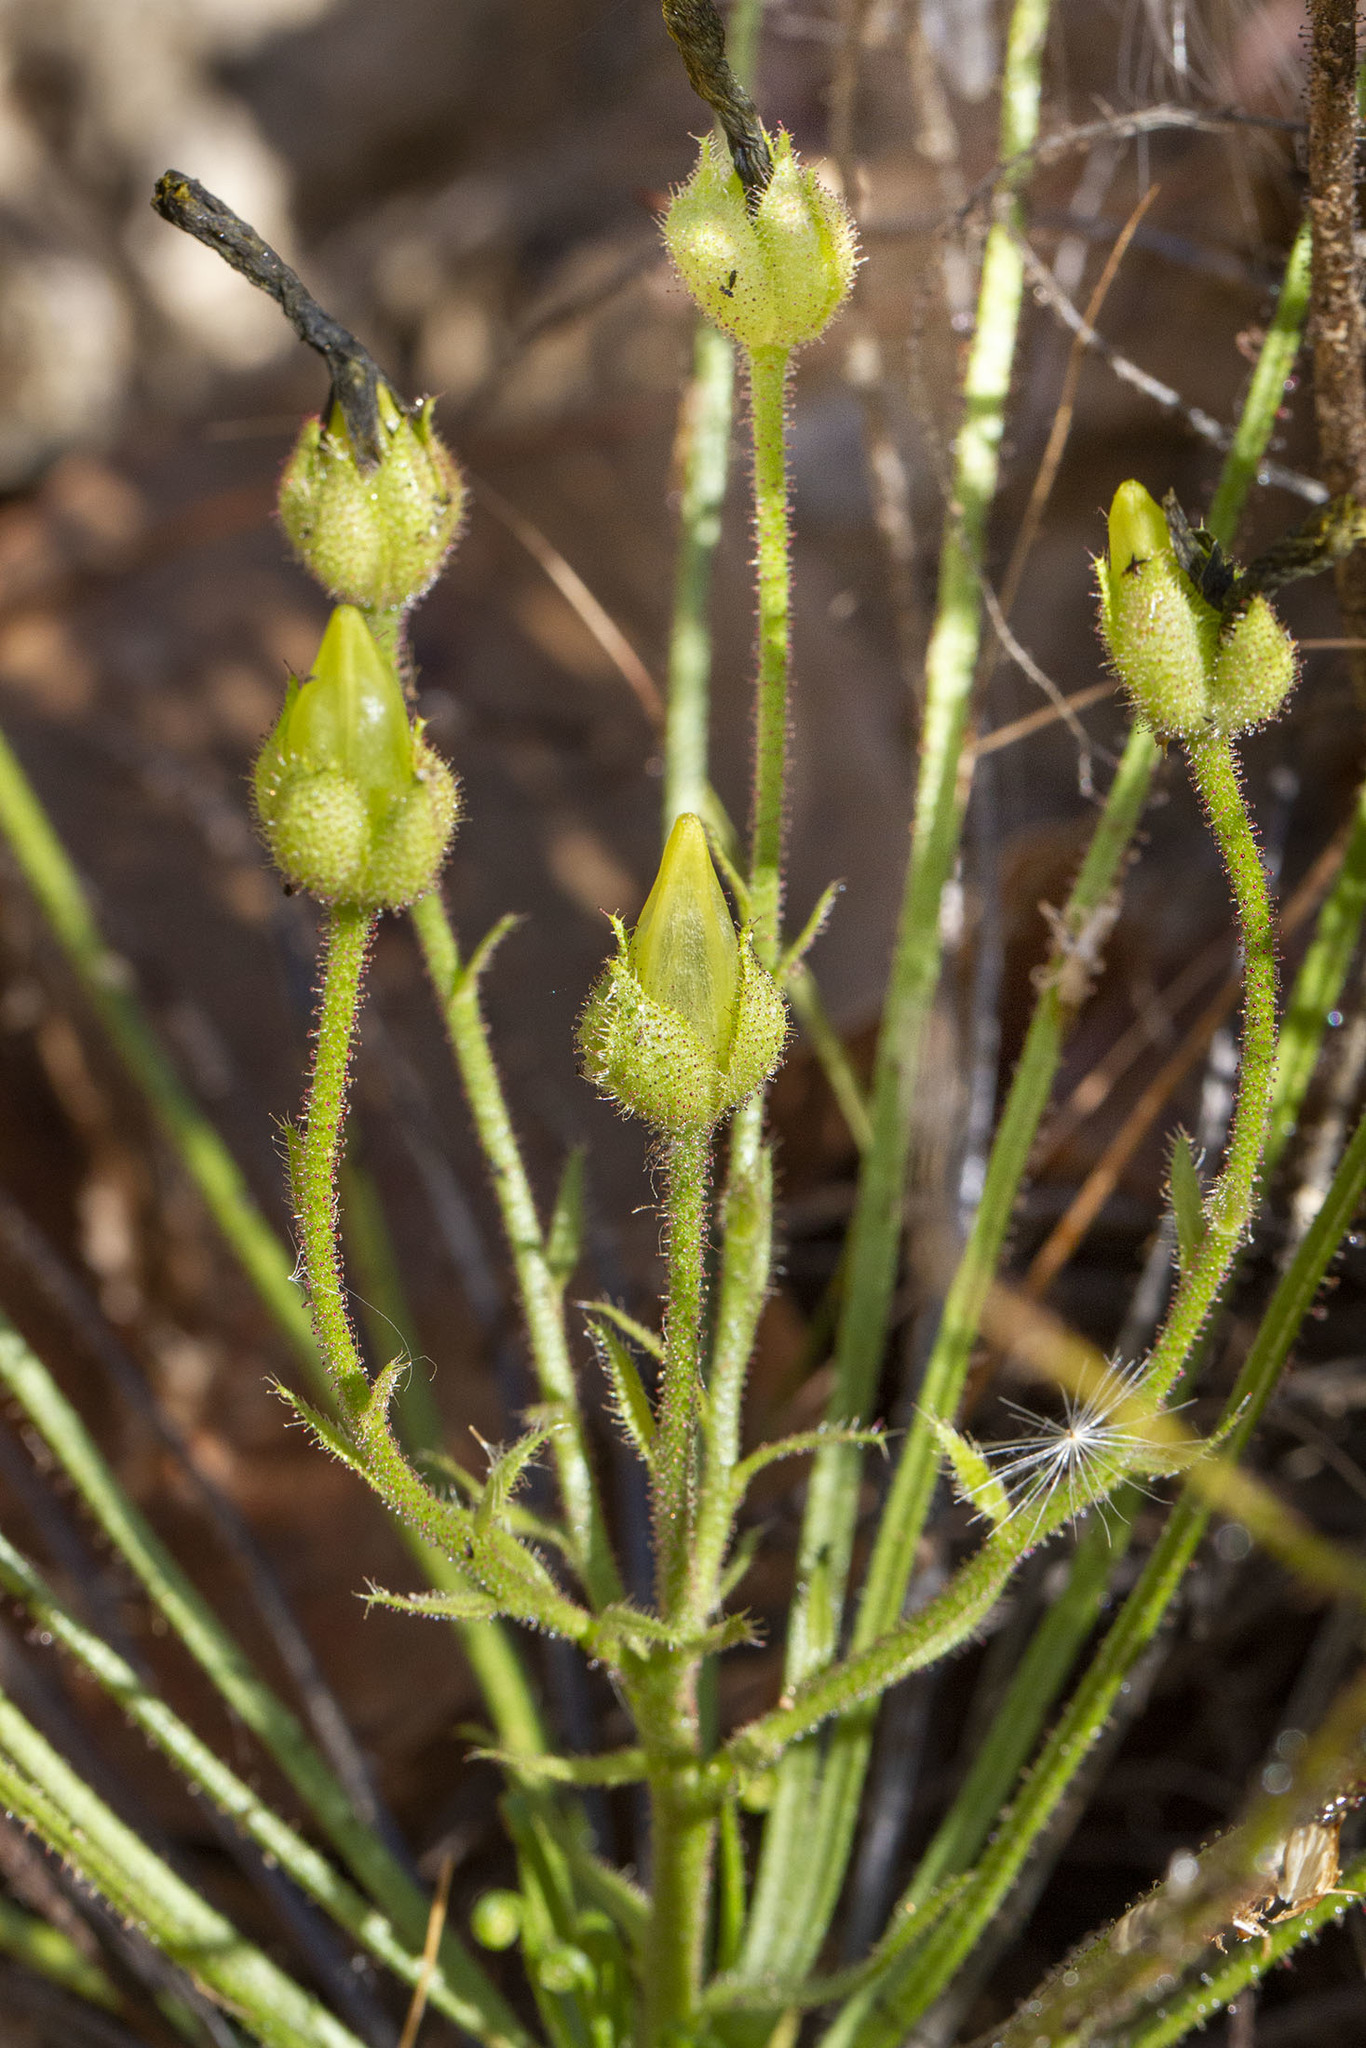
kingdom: Plantae
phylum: Tracheophyta
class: Magnoliopsida
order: Caryophyllales
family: Drosophyllaceae
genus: Drosophyllum
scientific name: Drosophyllum lusitanicum
